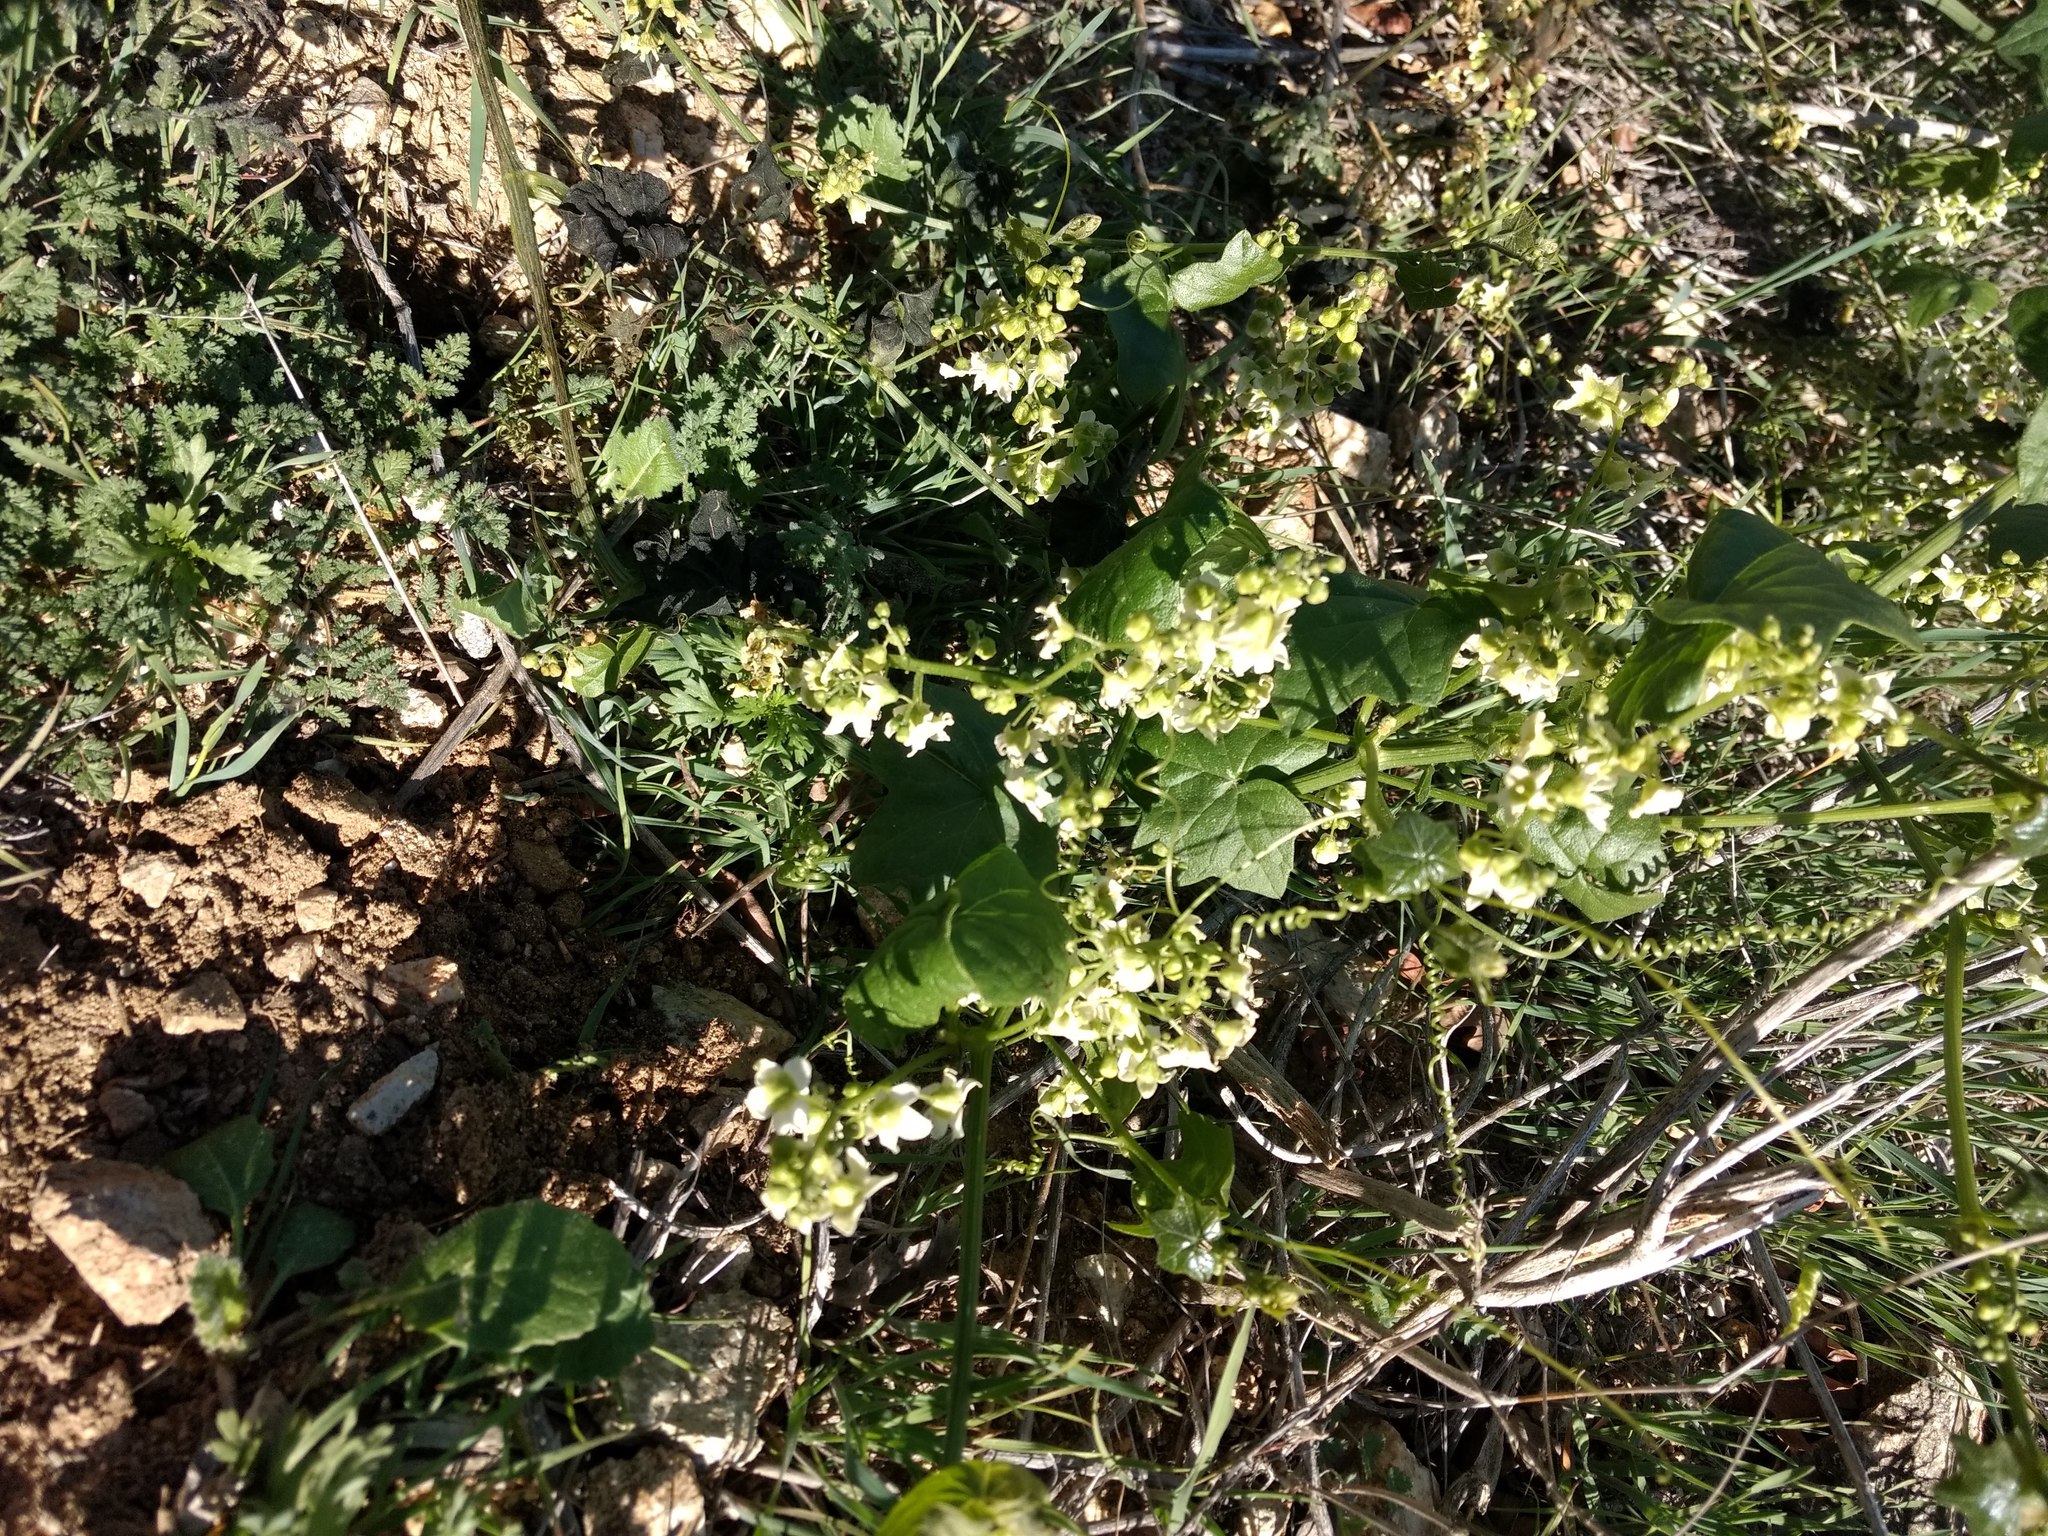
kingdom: Plantae
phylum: Tracheophyta
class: Magnoliopsida
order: Cucurbitales
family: Cucurbitaceae
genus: Marah
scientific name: Marah macrocarpa
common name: Cucamonga manroot
